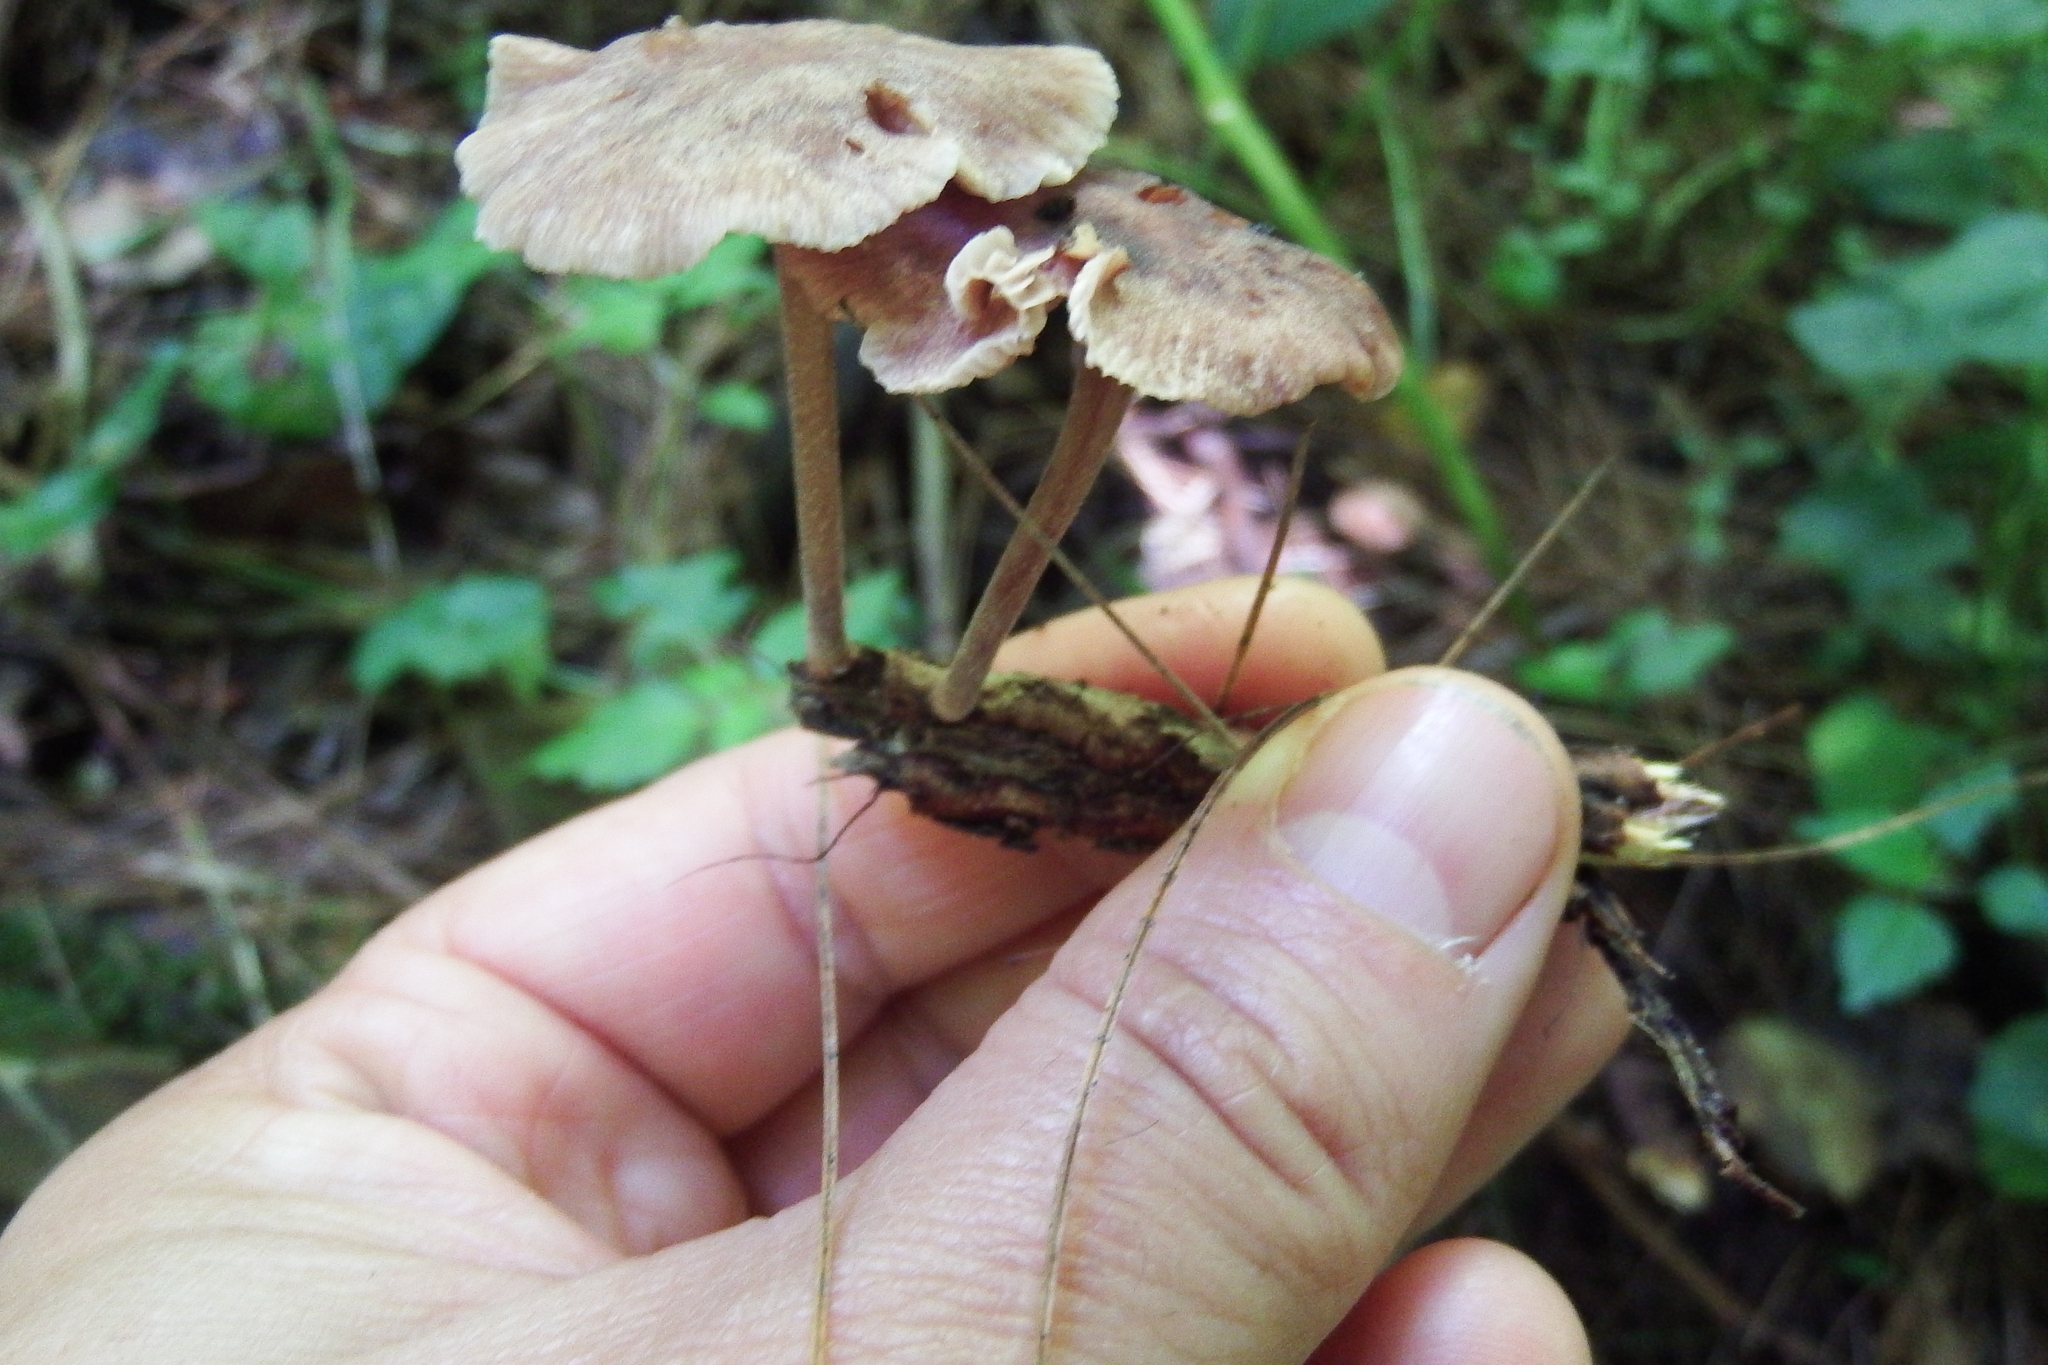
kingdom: Fungi
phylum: Basidiomycota
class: Agaricomycetes
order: Agaricales
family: Omphalotaceae
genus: Collybiopsis
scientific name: Collybiopsis villosipes
